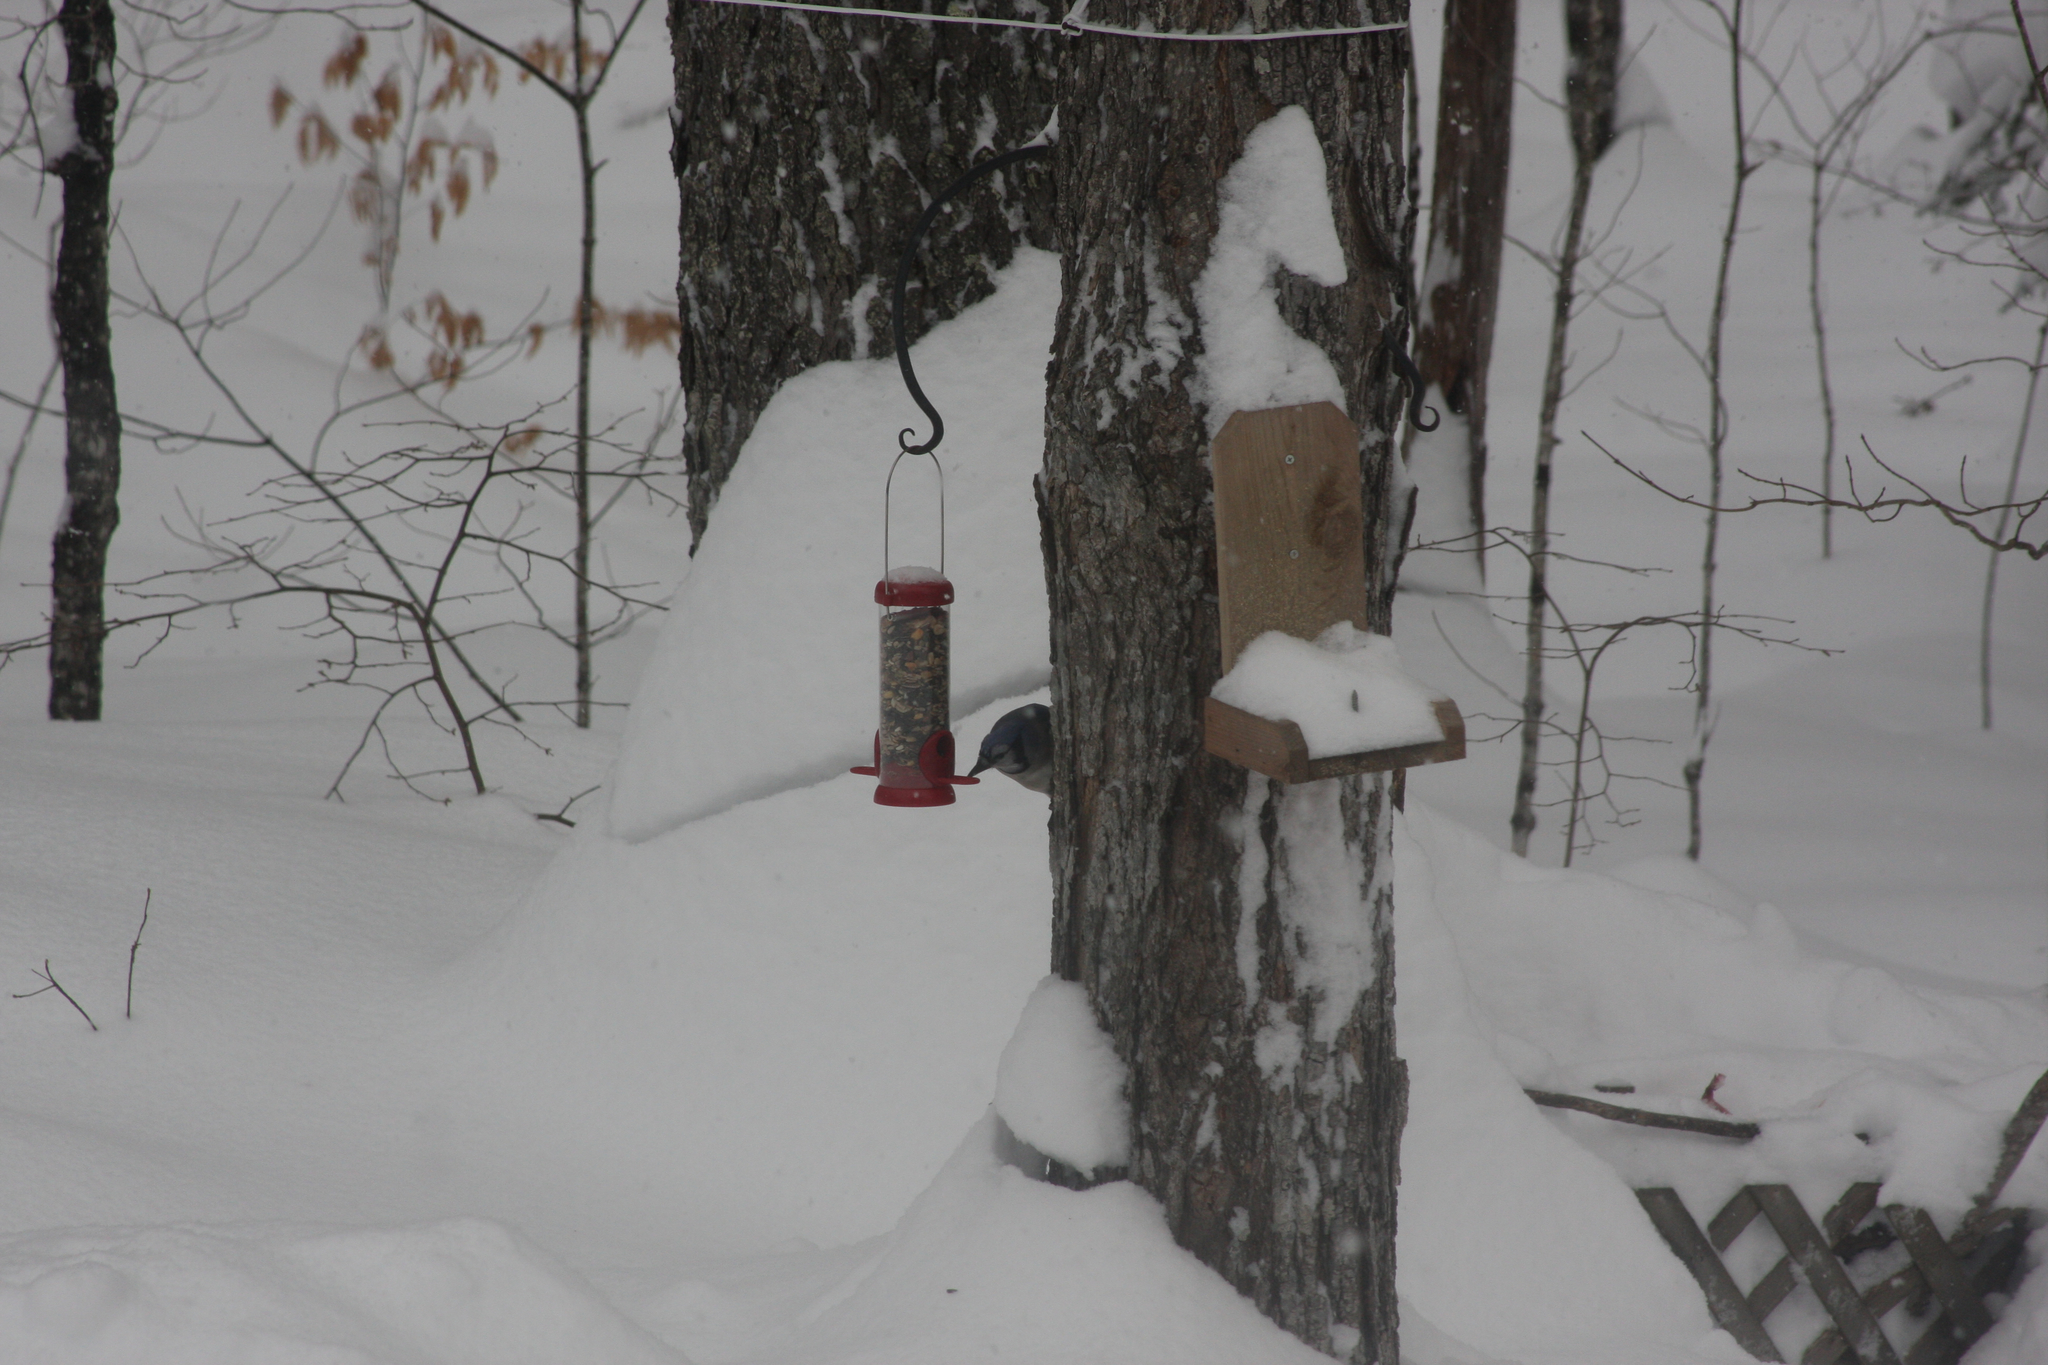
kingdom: Animalia
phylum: Chordata
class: Aves
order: Passeriformes
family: Corvidae
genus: Cyanocitta
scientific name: Cyanocitta cristata
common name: Blue jay
